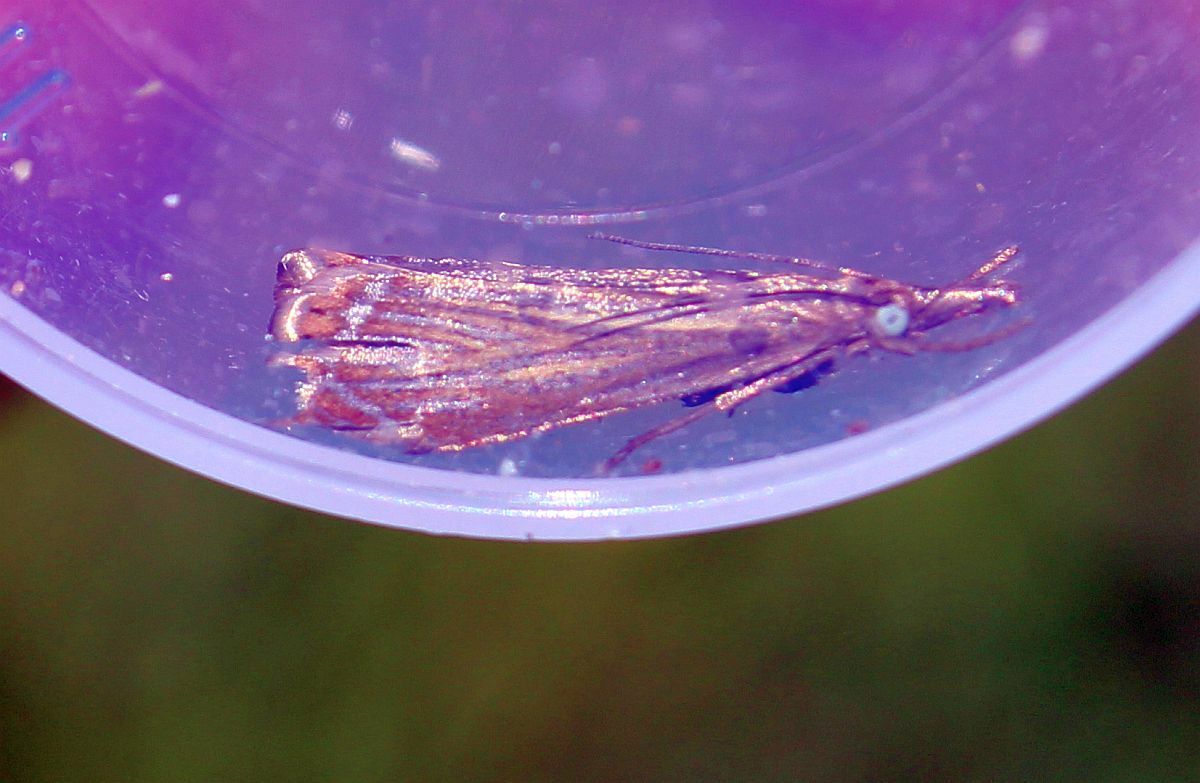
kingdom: Animalia
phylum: Arthropoda
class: Insecta
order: Lepidoptera
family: Crambidae
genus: Chrysoteuchia
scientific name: Chrysoteuchia culmella
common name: Garden grass-veneer
